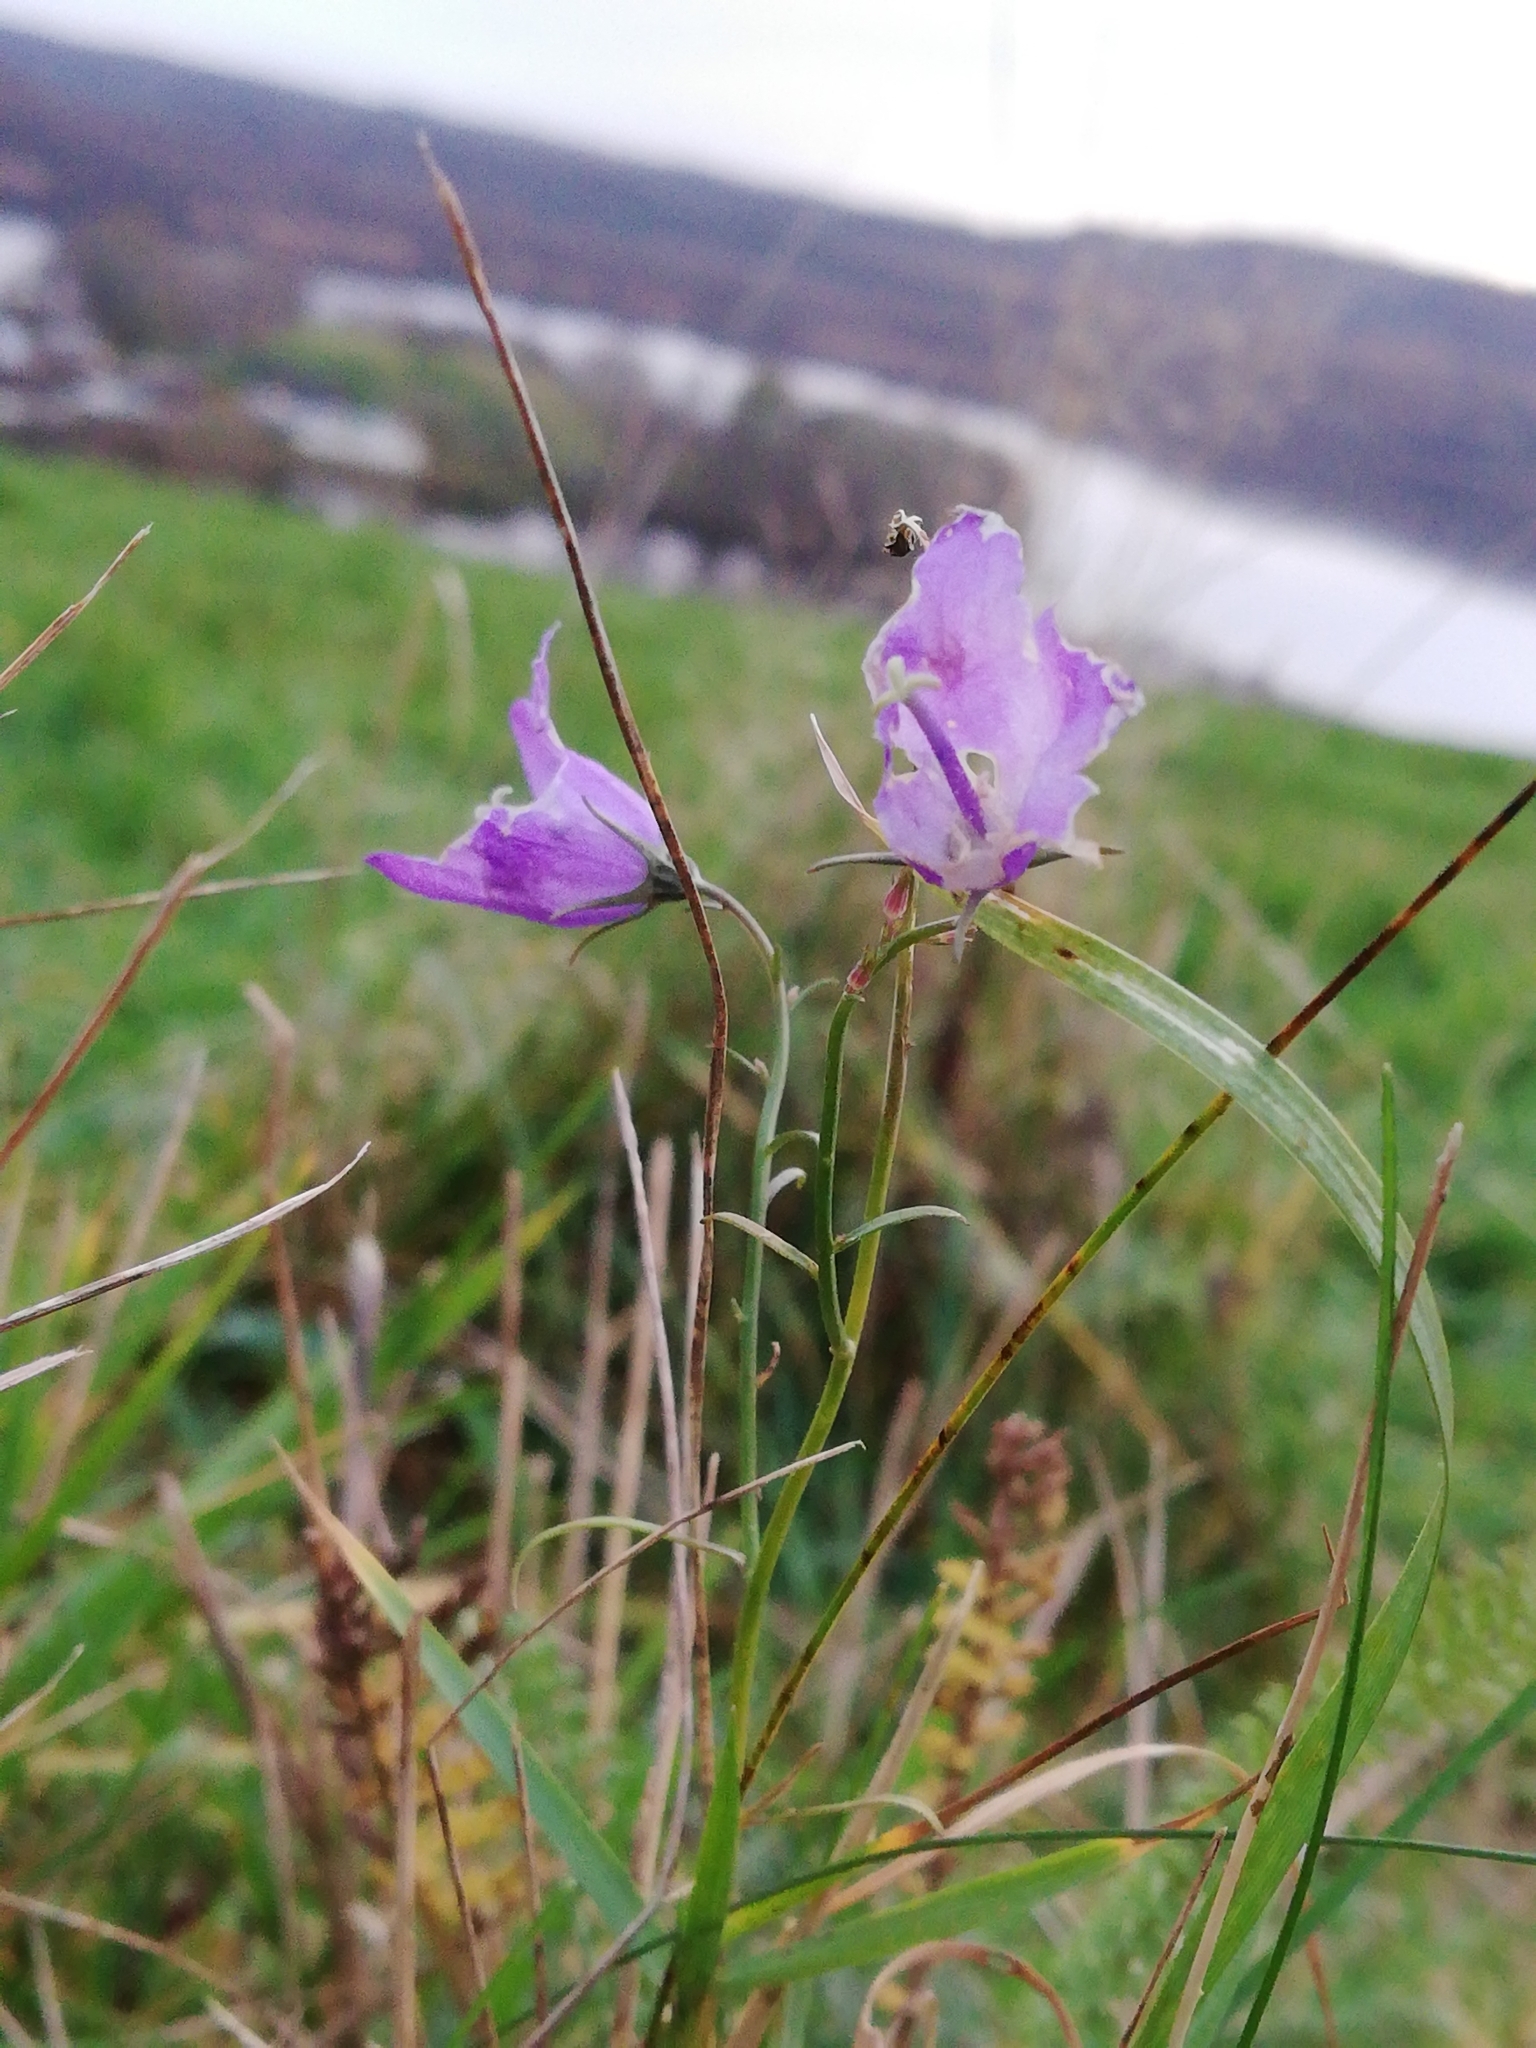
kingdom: Plantae
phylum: Tracheophyta
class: Magnoliopsida
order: Asterales
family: Campanulaceae
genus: Campanula
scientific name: Campanula rotundifolia
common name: Harebell
